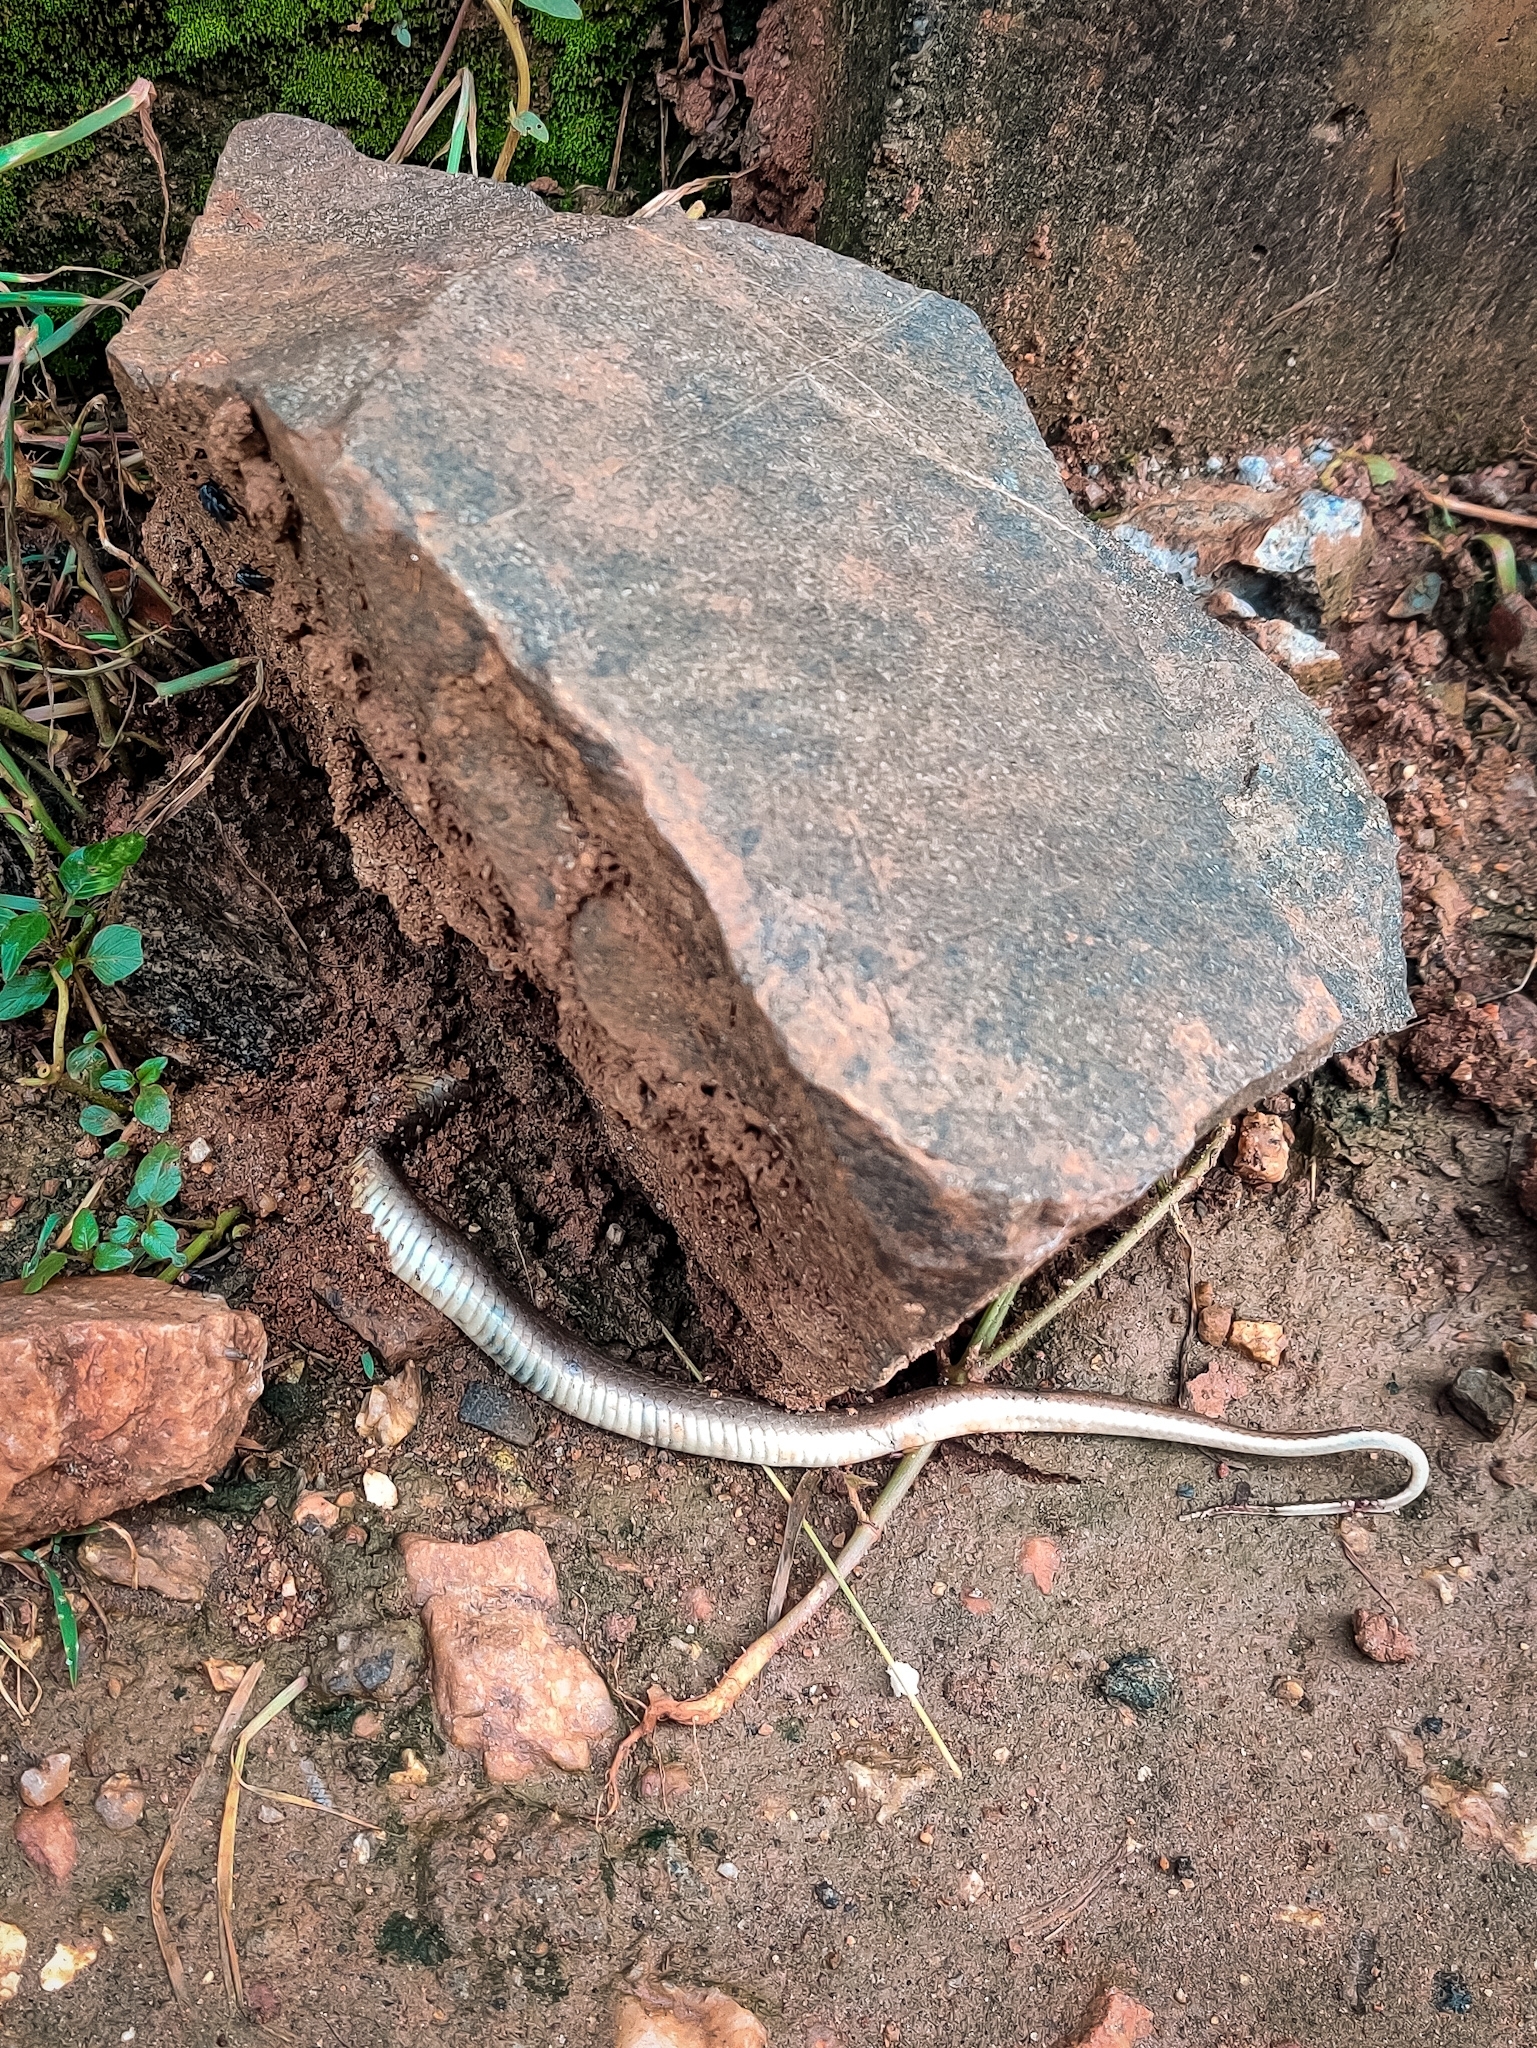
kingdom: Animalia
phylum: Chordata
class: Squamata
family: Colubridae
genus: Fowlea
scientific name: Fowlea piscator
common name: Asiatic water snake
